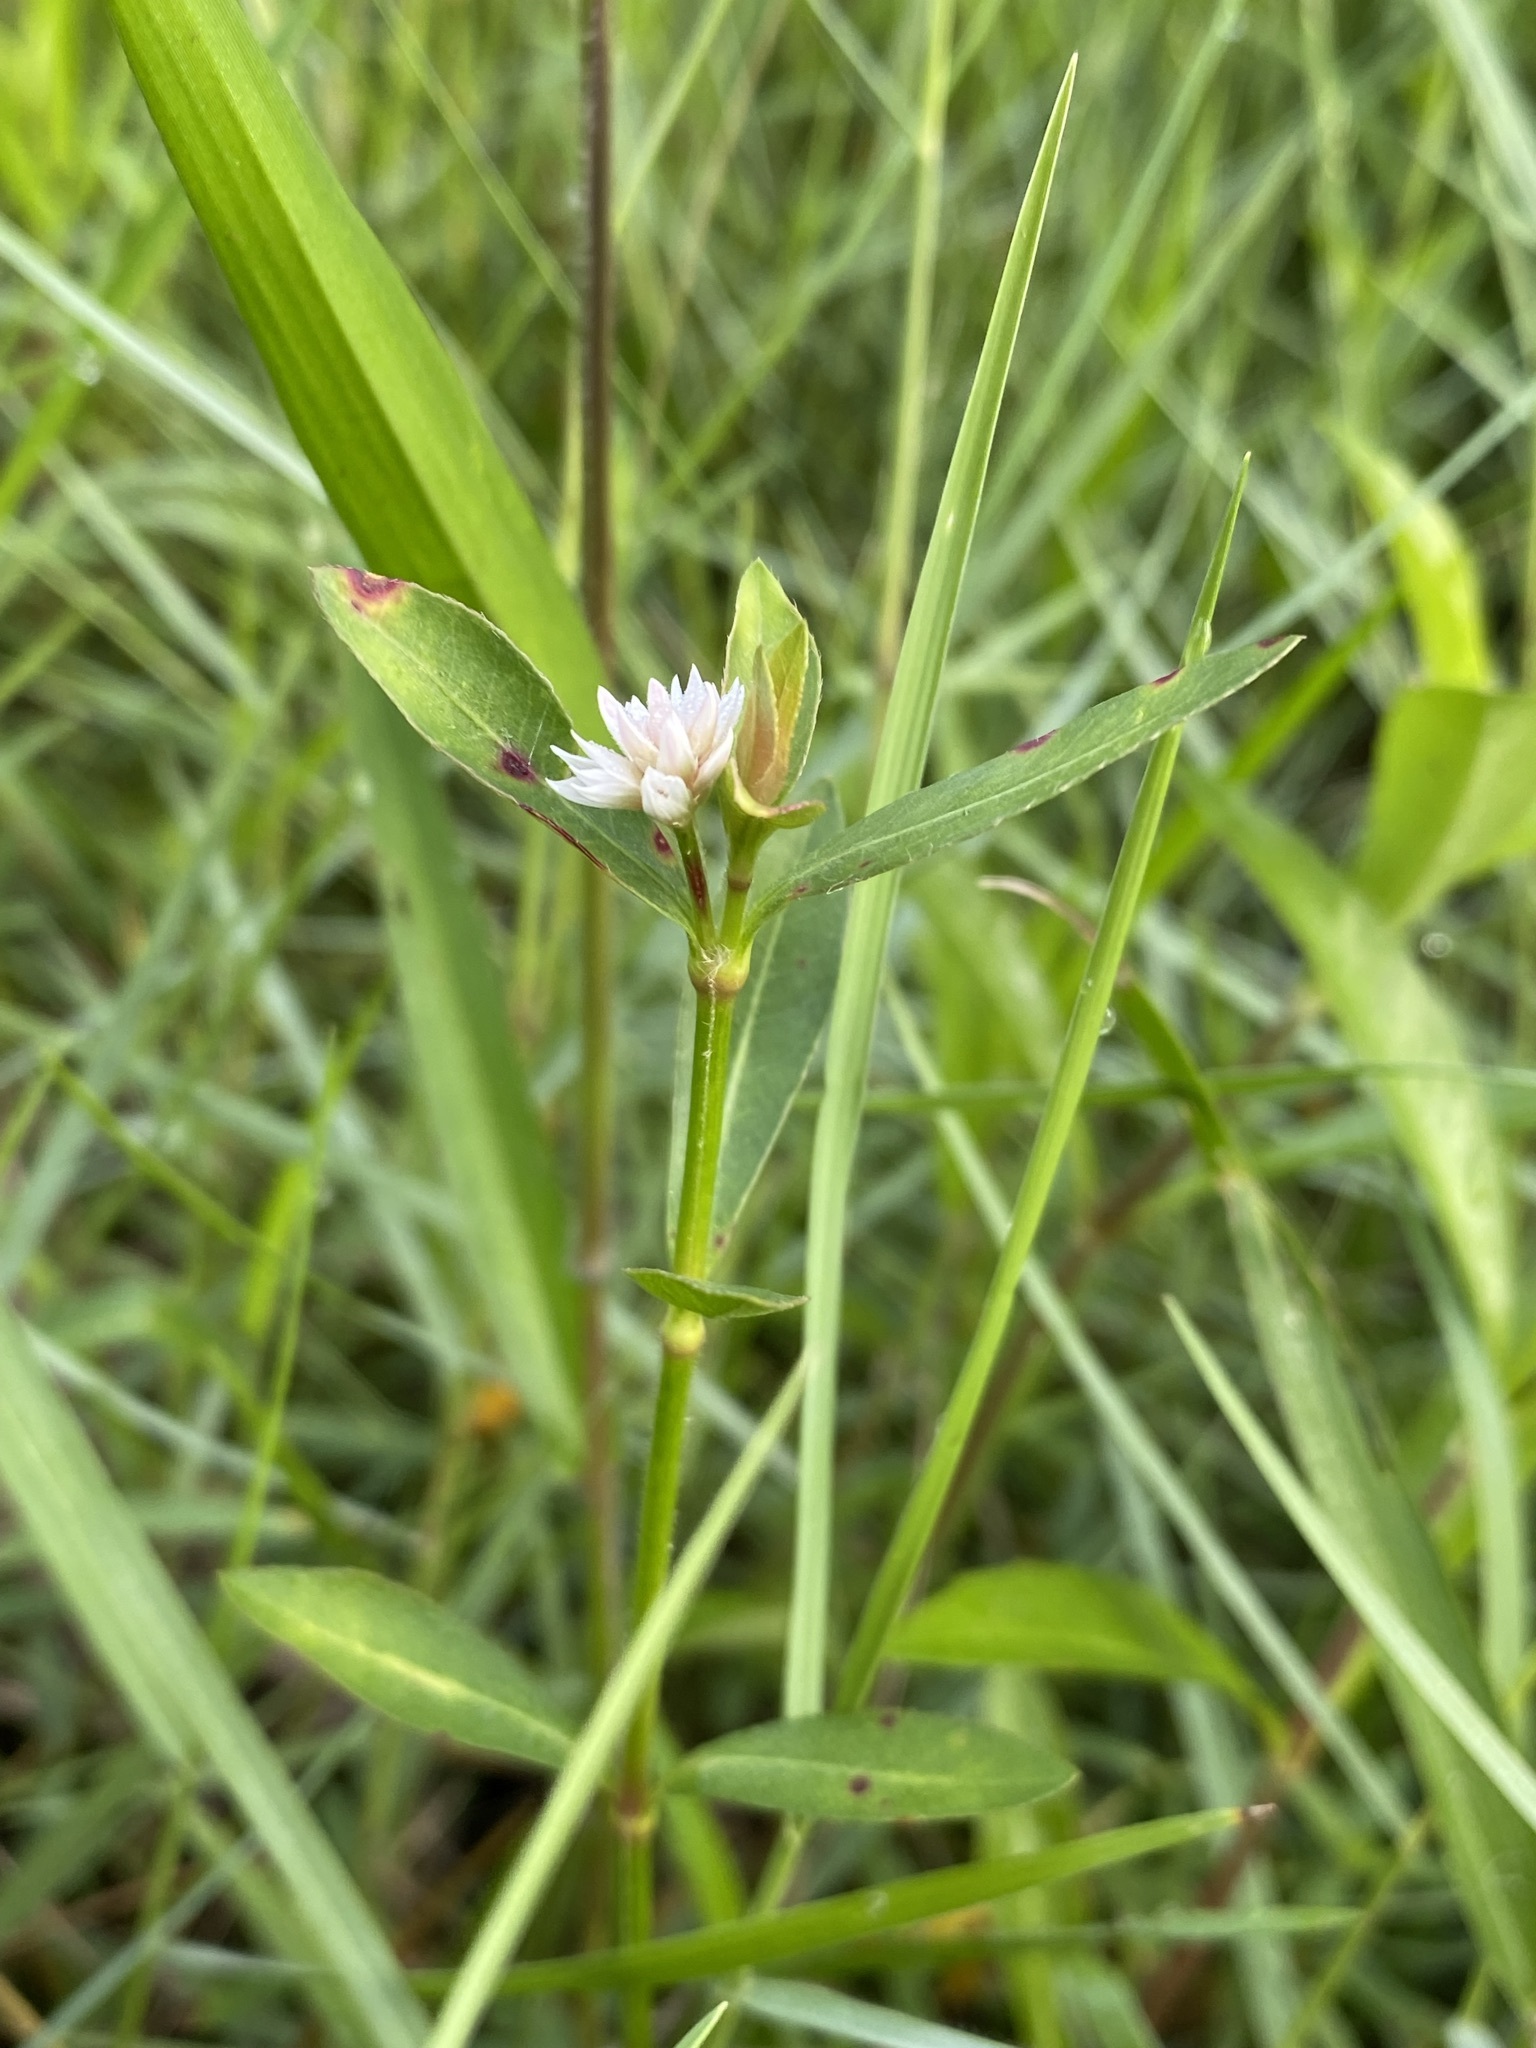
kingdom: Plantae
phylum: Tracheophyta
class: Magnoliopsida
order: Caryophyllales
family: Amaranthaceae
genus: Alternanthera
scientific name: Alternanthera philoxeroides
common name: Alligatorweed
